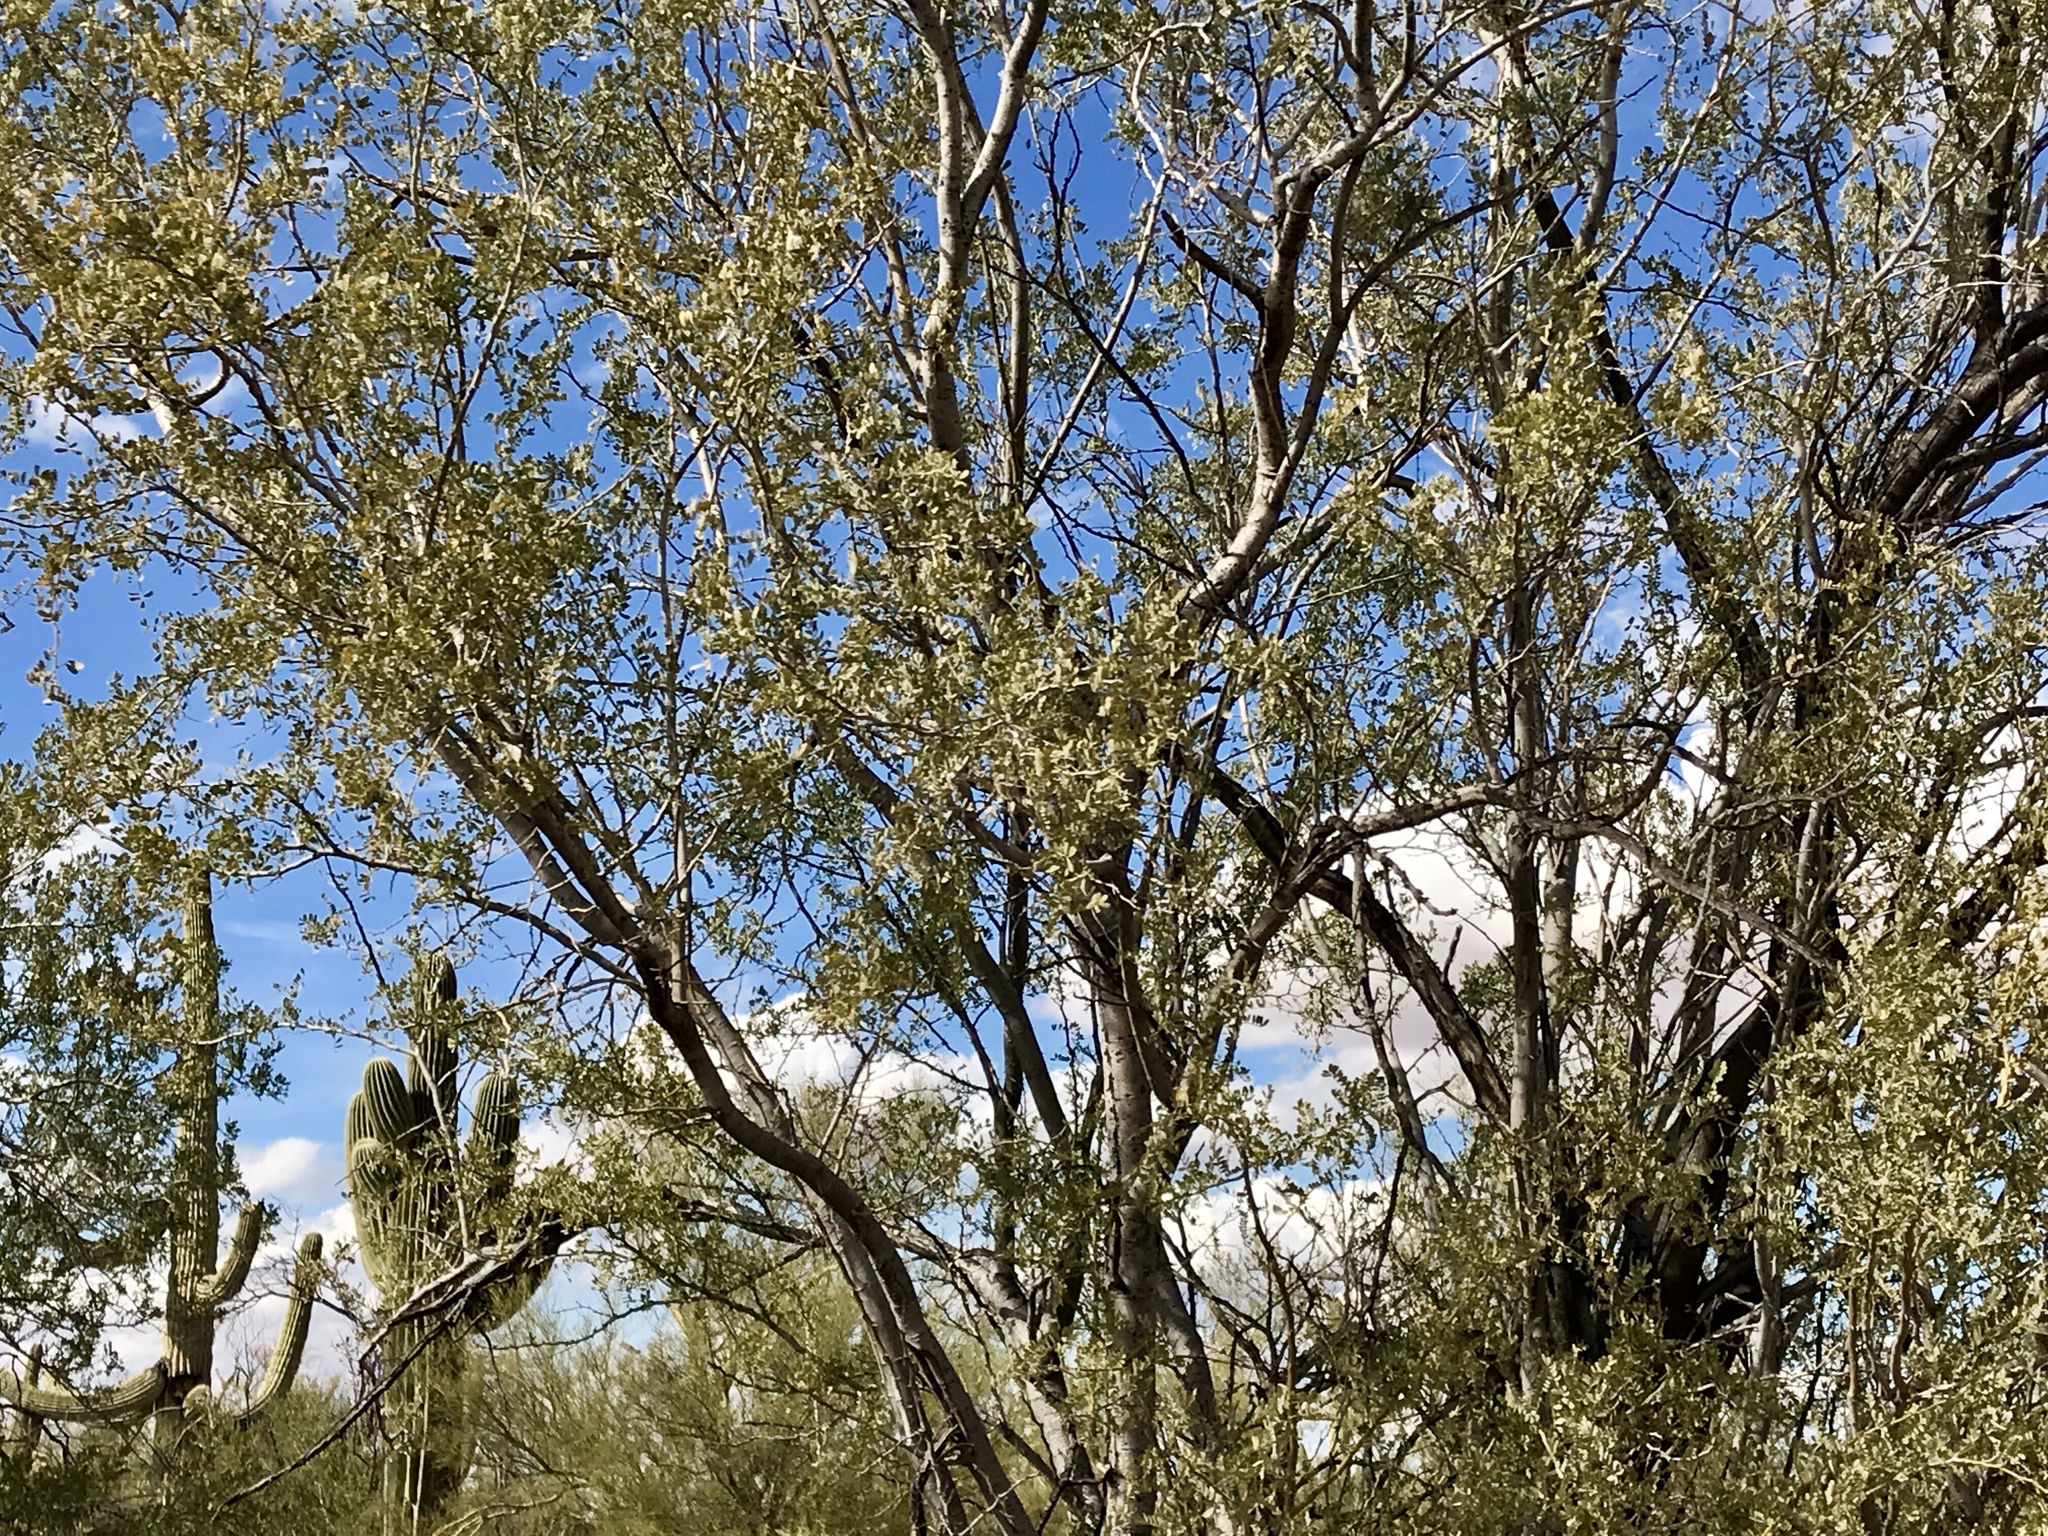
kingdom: Plantae
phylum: Tracheophyta
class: Magnoliopsida
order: Fabales
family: Fabaceae
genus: Olneya
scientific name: Olneya tesota
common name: Desert ironwood
